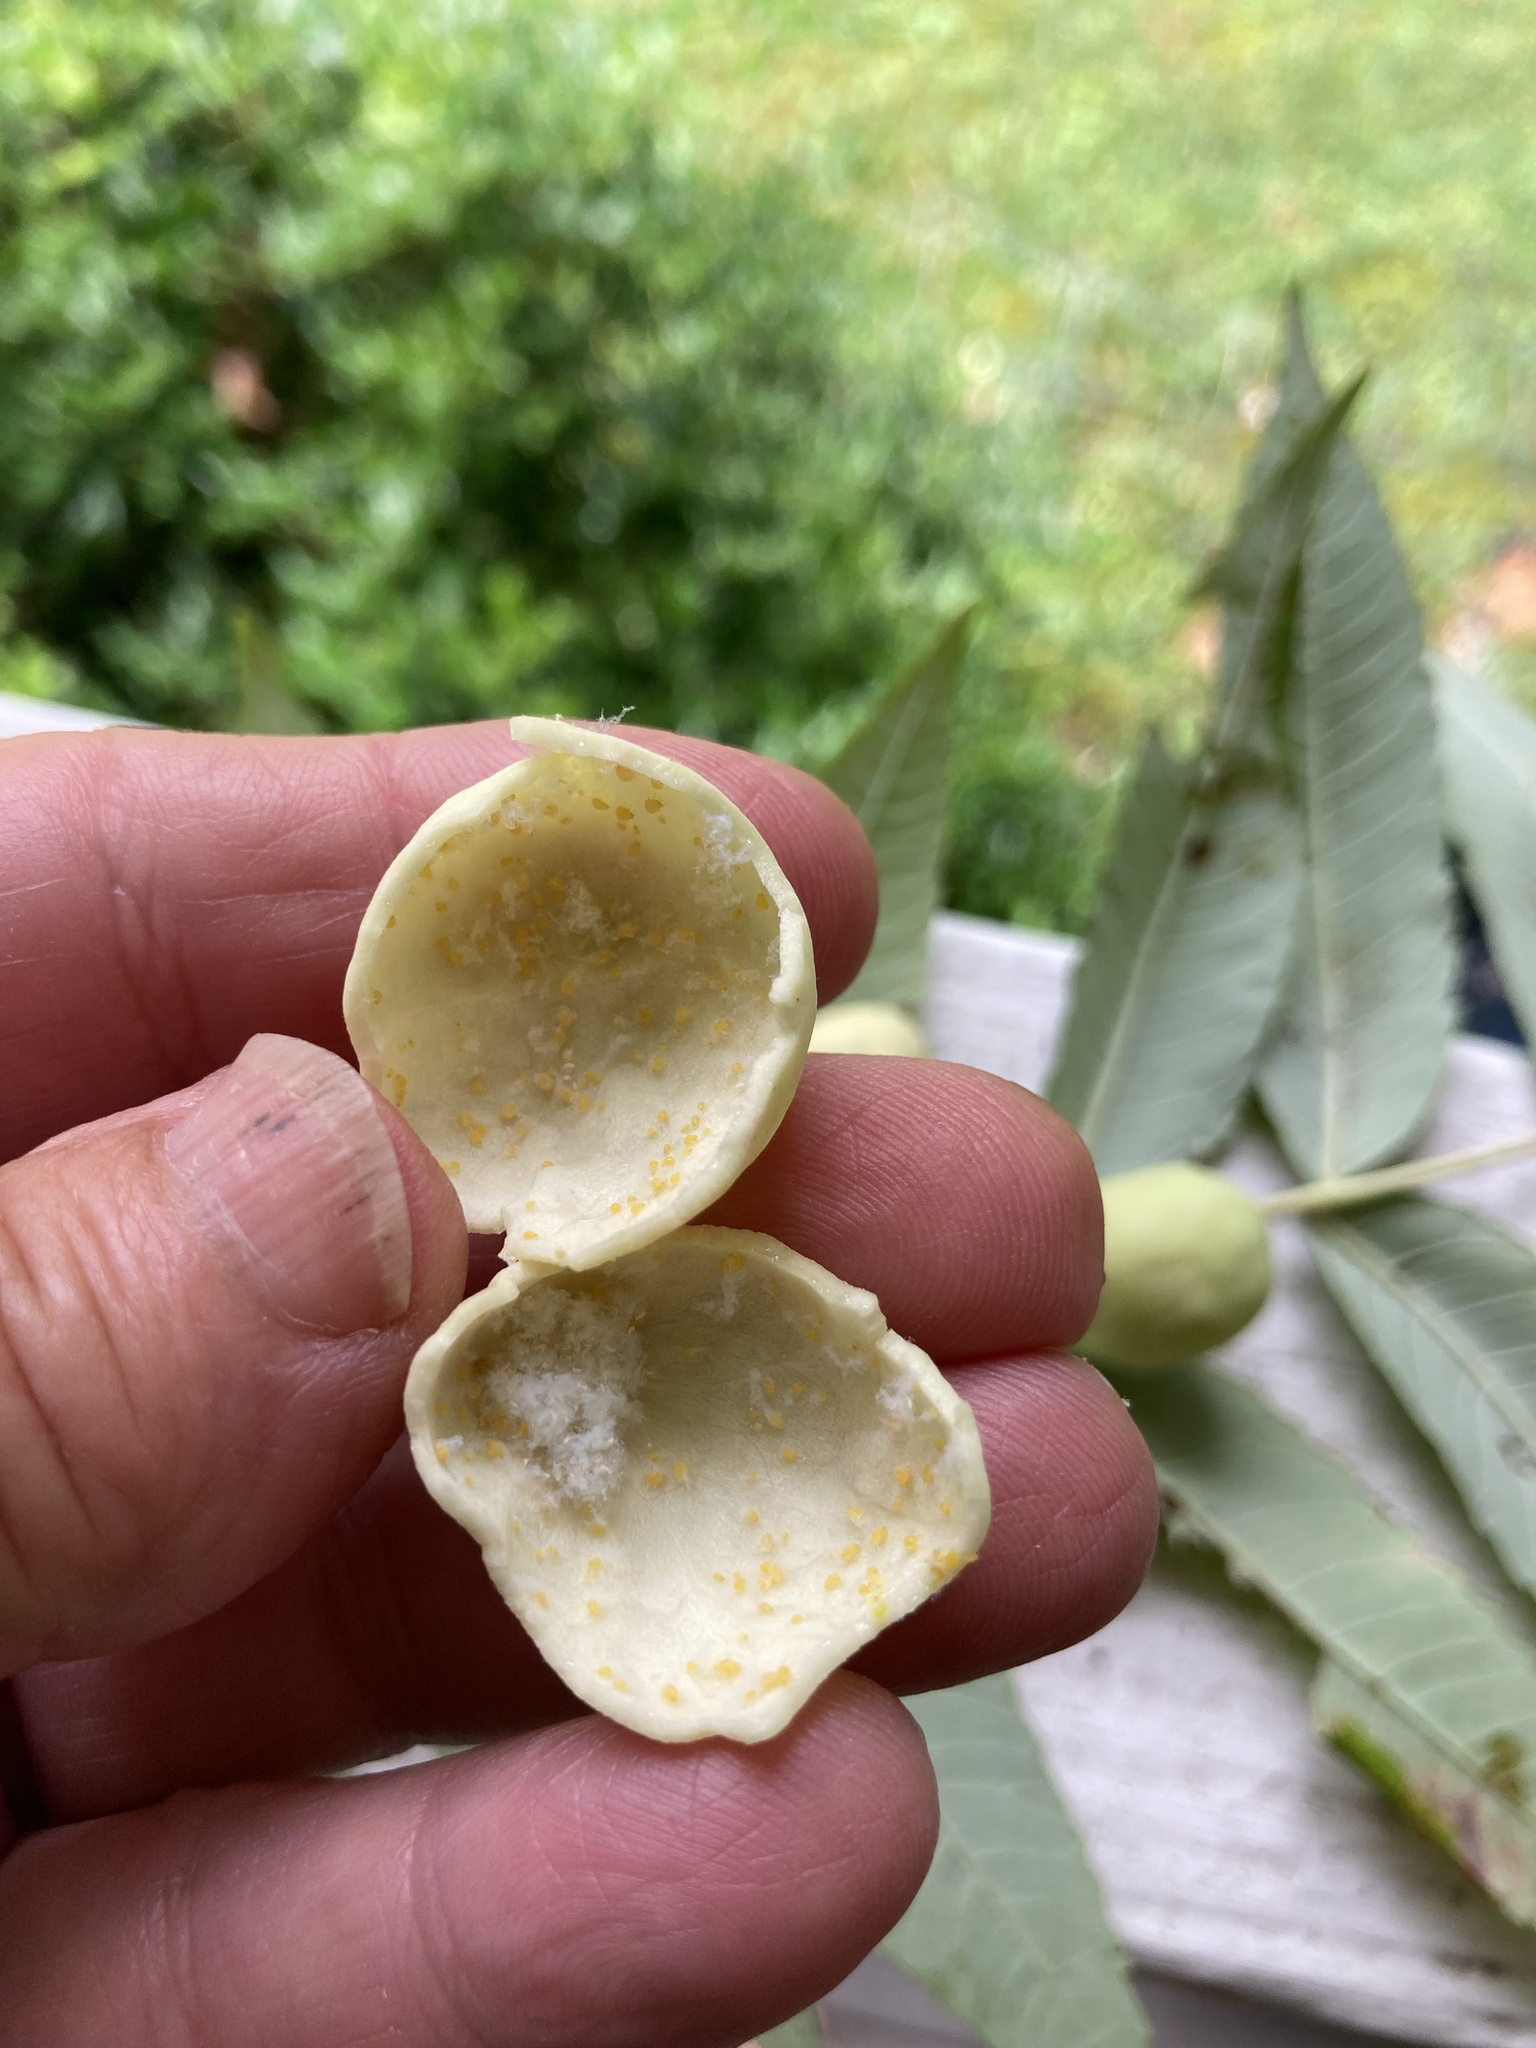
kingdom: Animalia
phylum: Arthropoda
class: Insecta
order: Hemiptera
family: Aphididae
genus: Melaphis
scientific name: Melaphis rhois
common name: Sumac gall aphid
